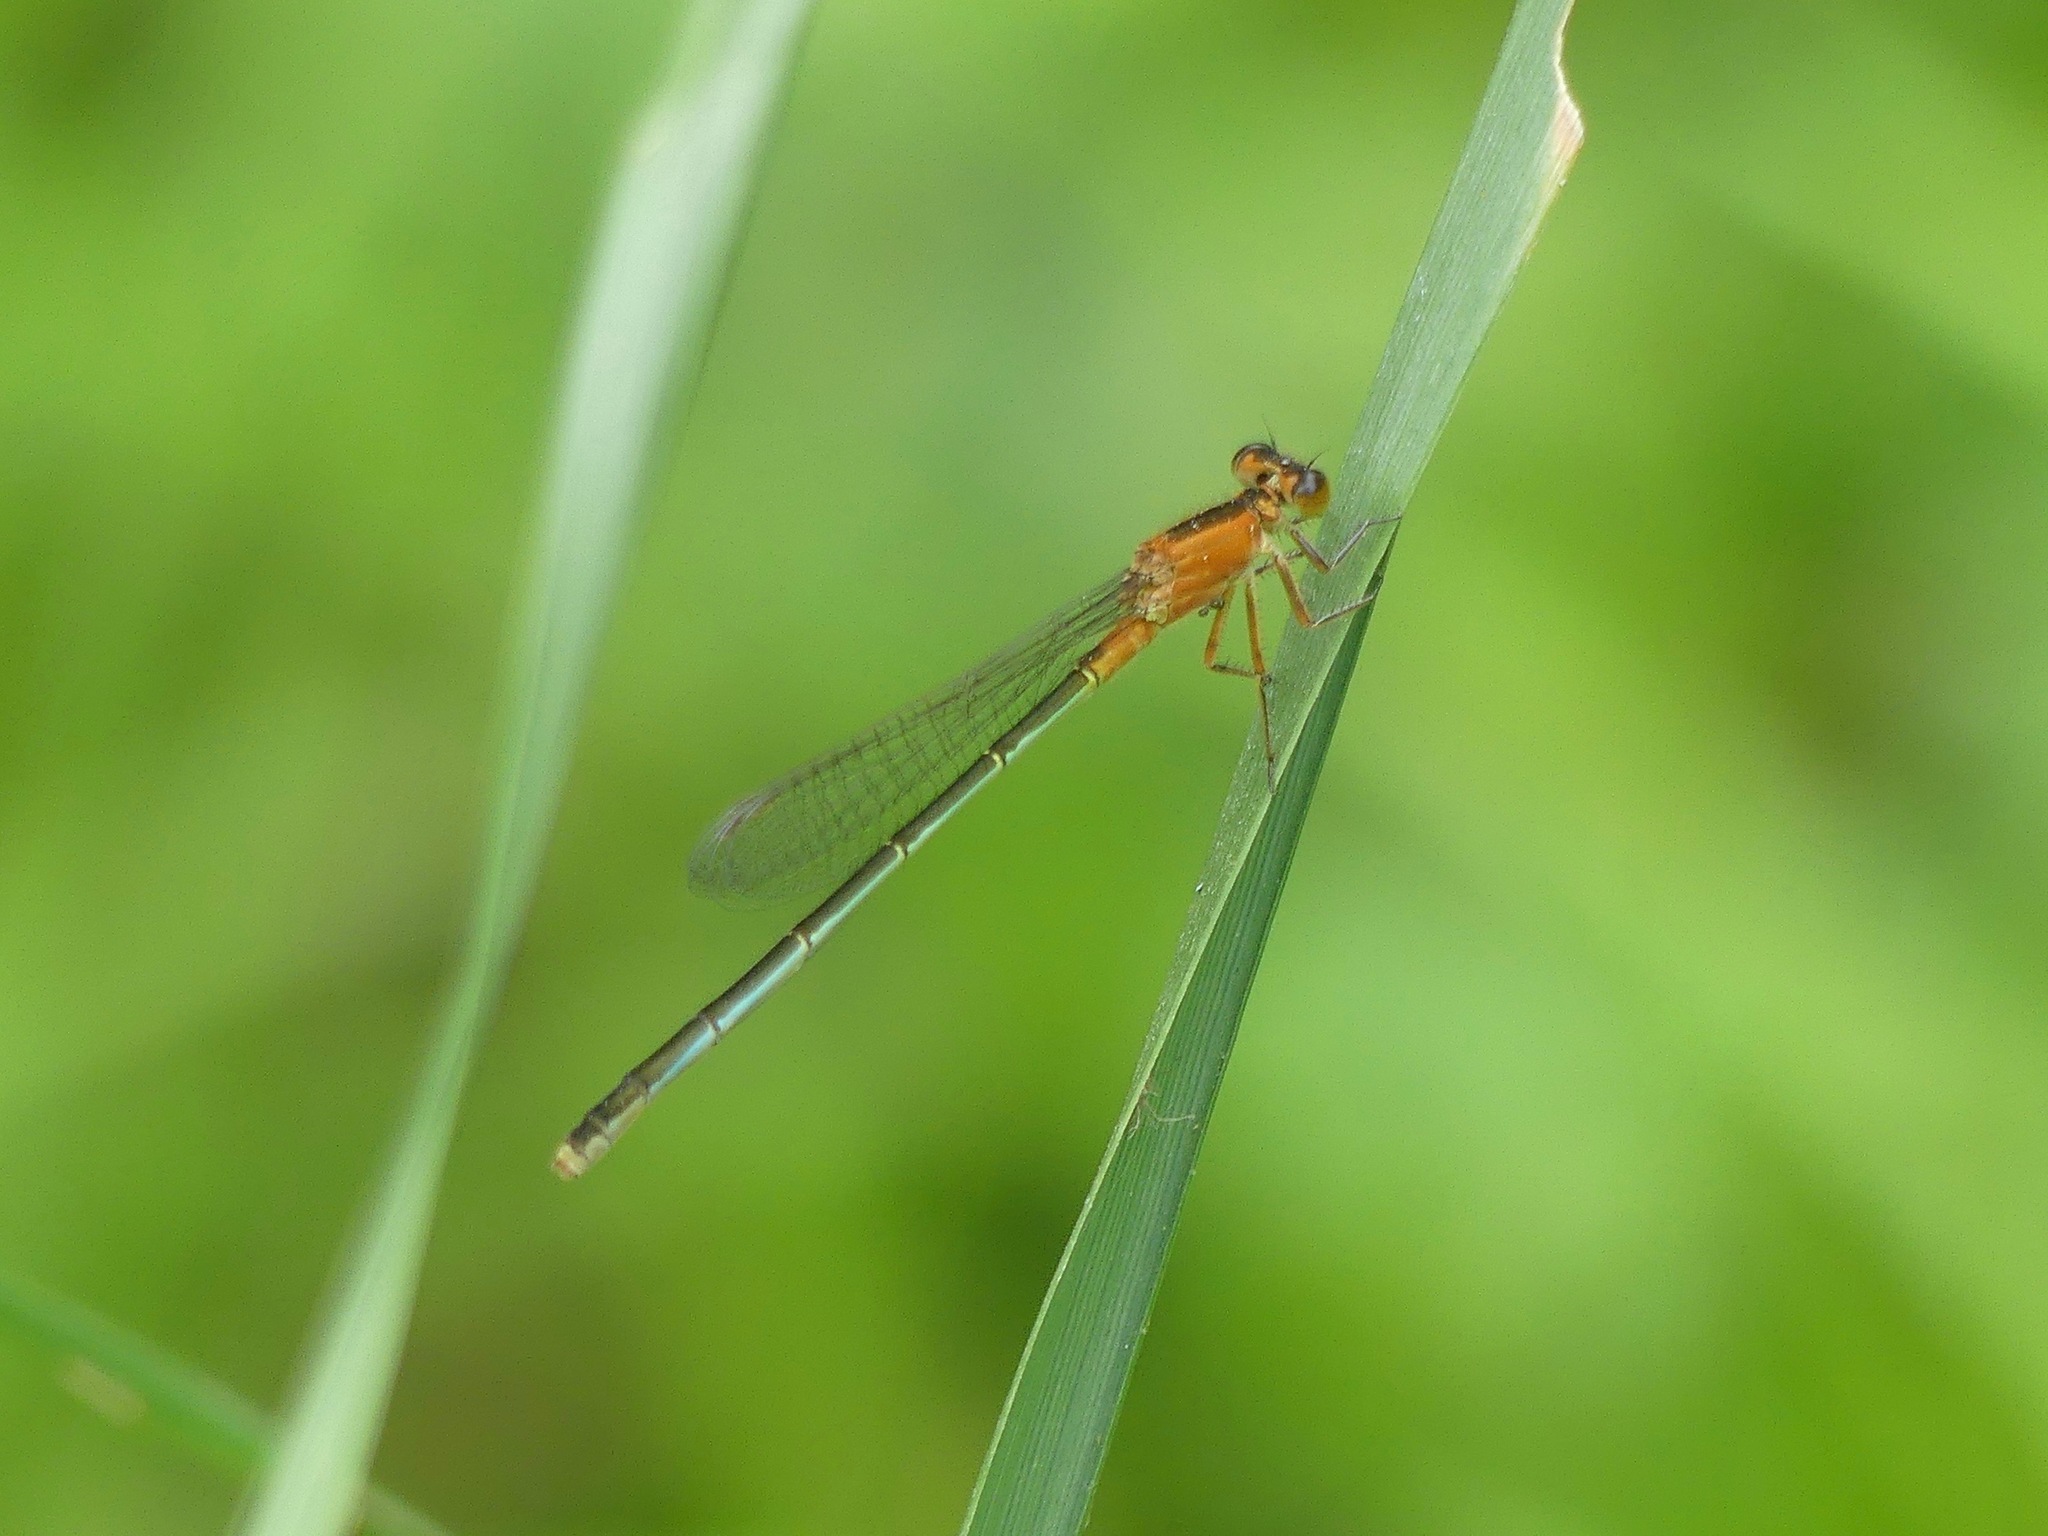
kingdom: Animalia
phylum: Arthropoda
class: Insecta
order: Odonata
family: Coenagrionidae
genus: Ischnura
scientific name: Ischnura ramburii
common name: Rambur's forktail
